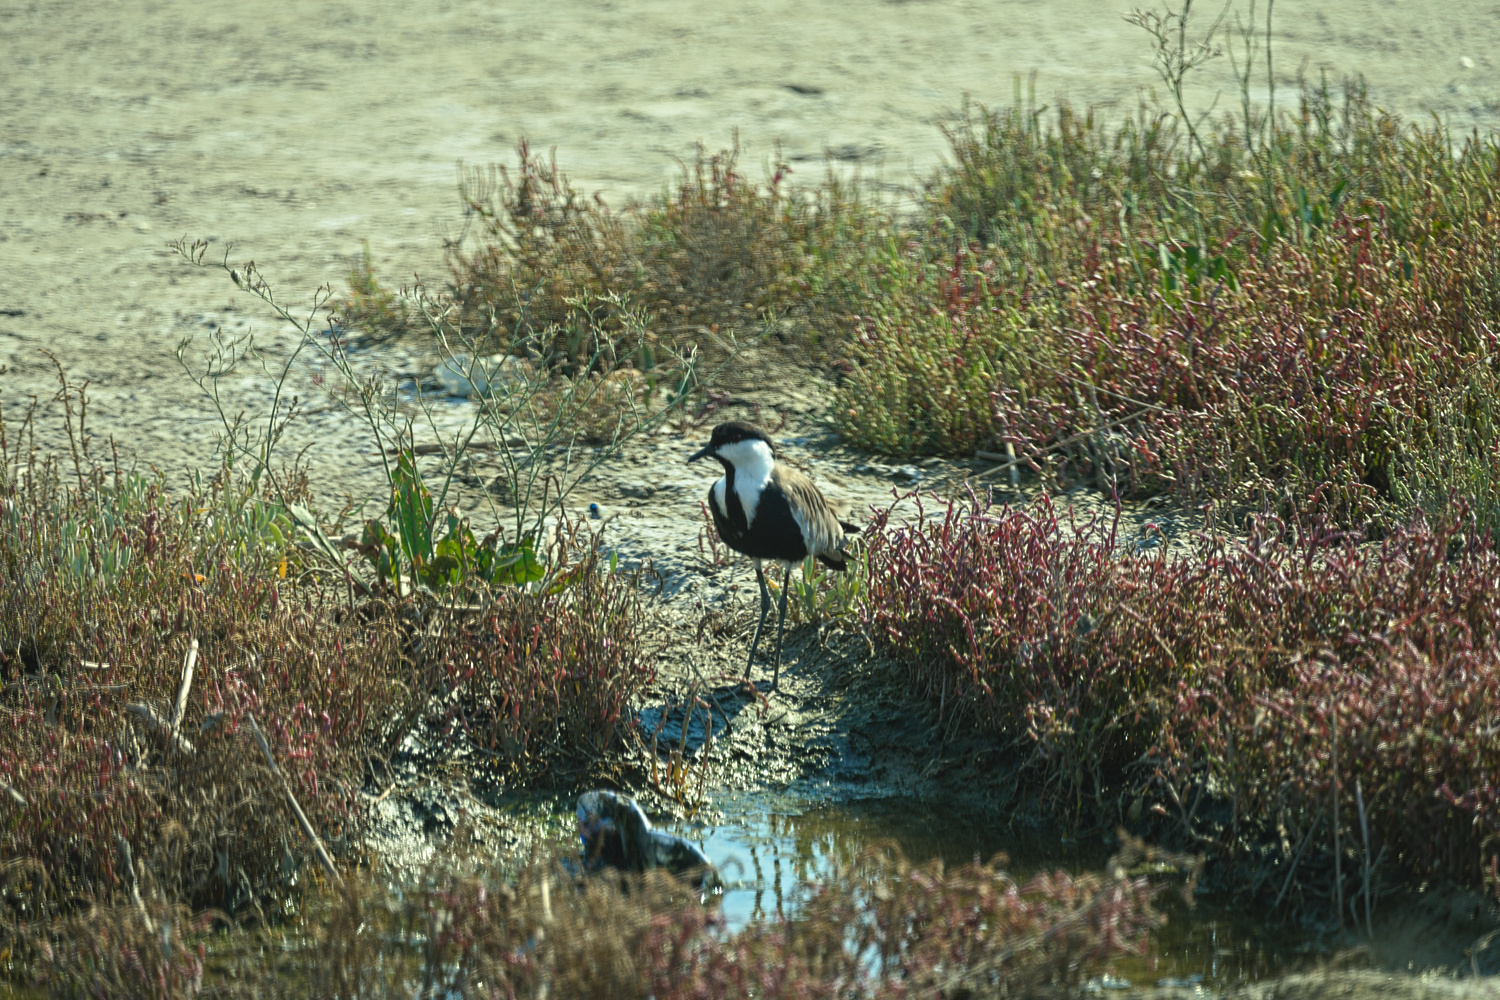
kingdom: Animalia
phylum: Chordata
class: Aves
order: Charadriiformes
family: Charadriidae
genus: Vanellus
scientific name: Vanellus spinosus
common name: Spur-winged lapwing
